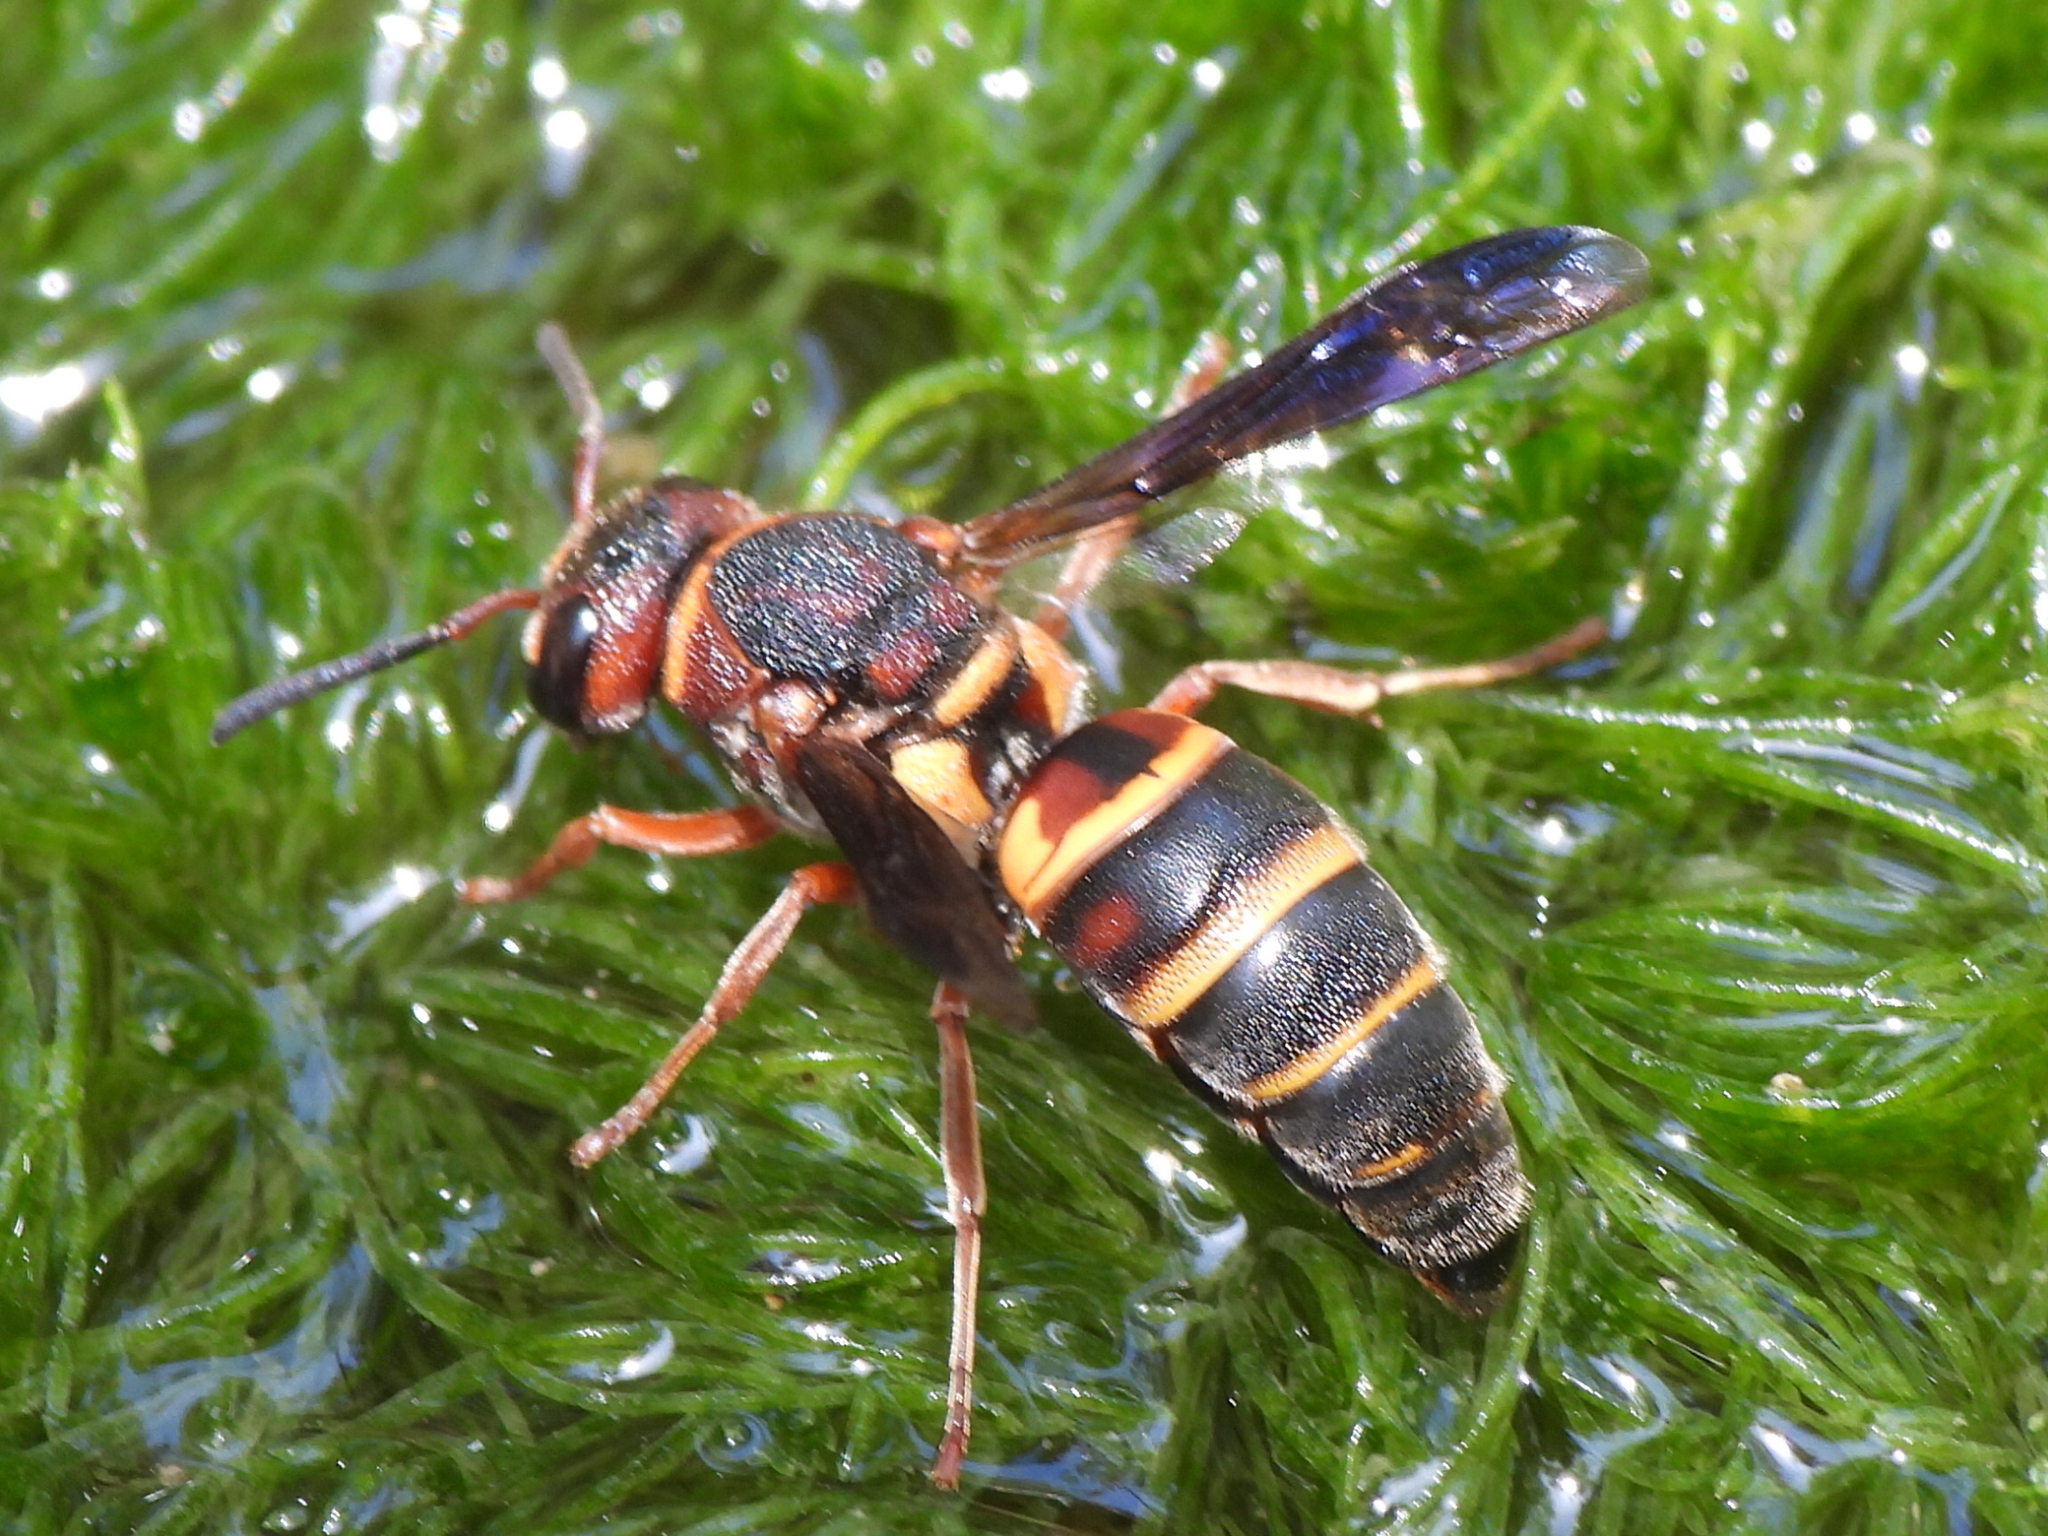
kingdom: Animalia
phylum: Arthropoda
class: Insecta
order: Hymenoptera
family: Eumenidae
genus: Euodynerus
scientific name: Euodynerus annulatus
